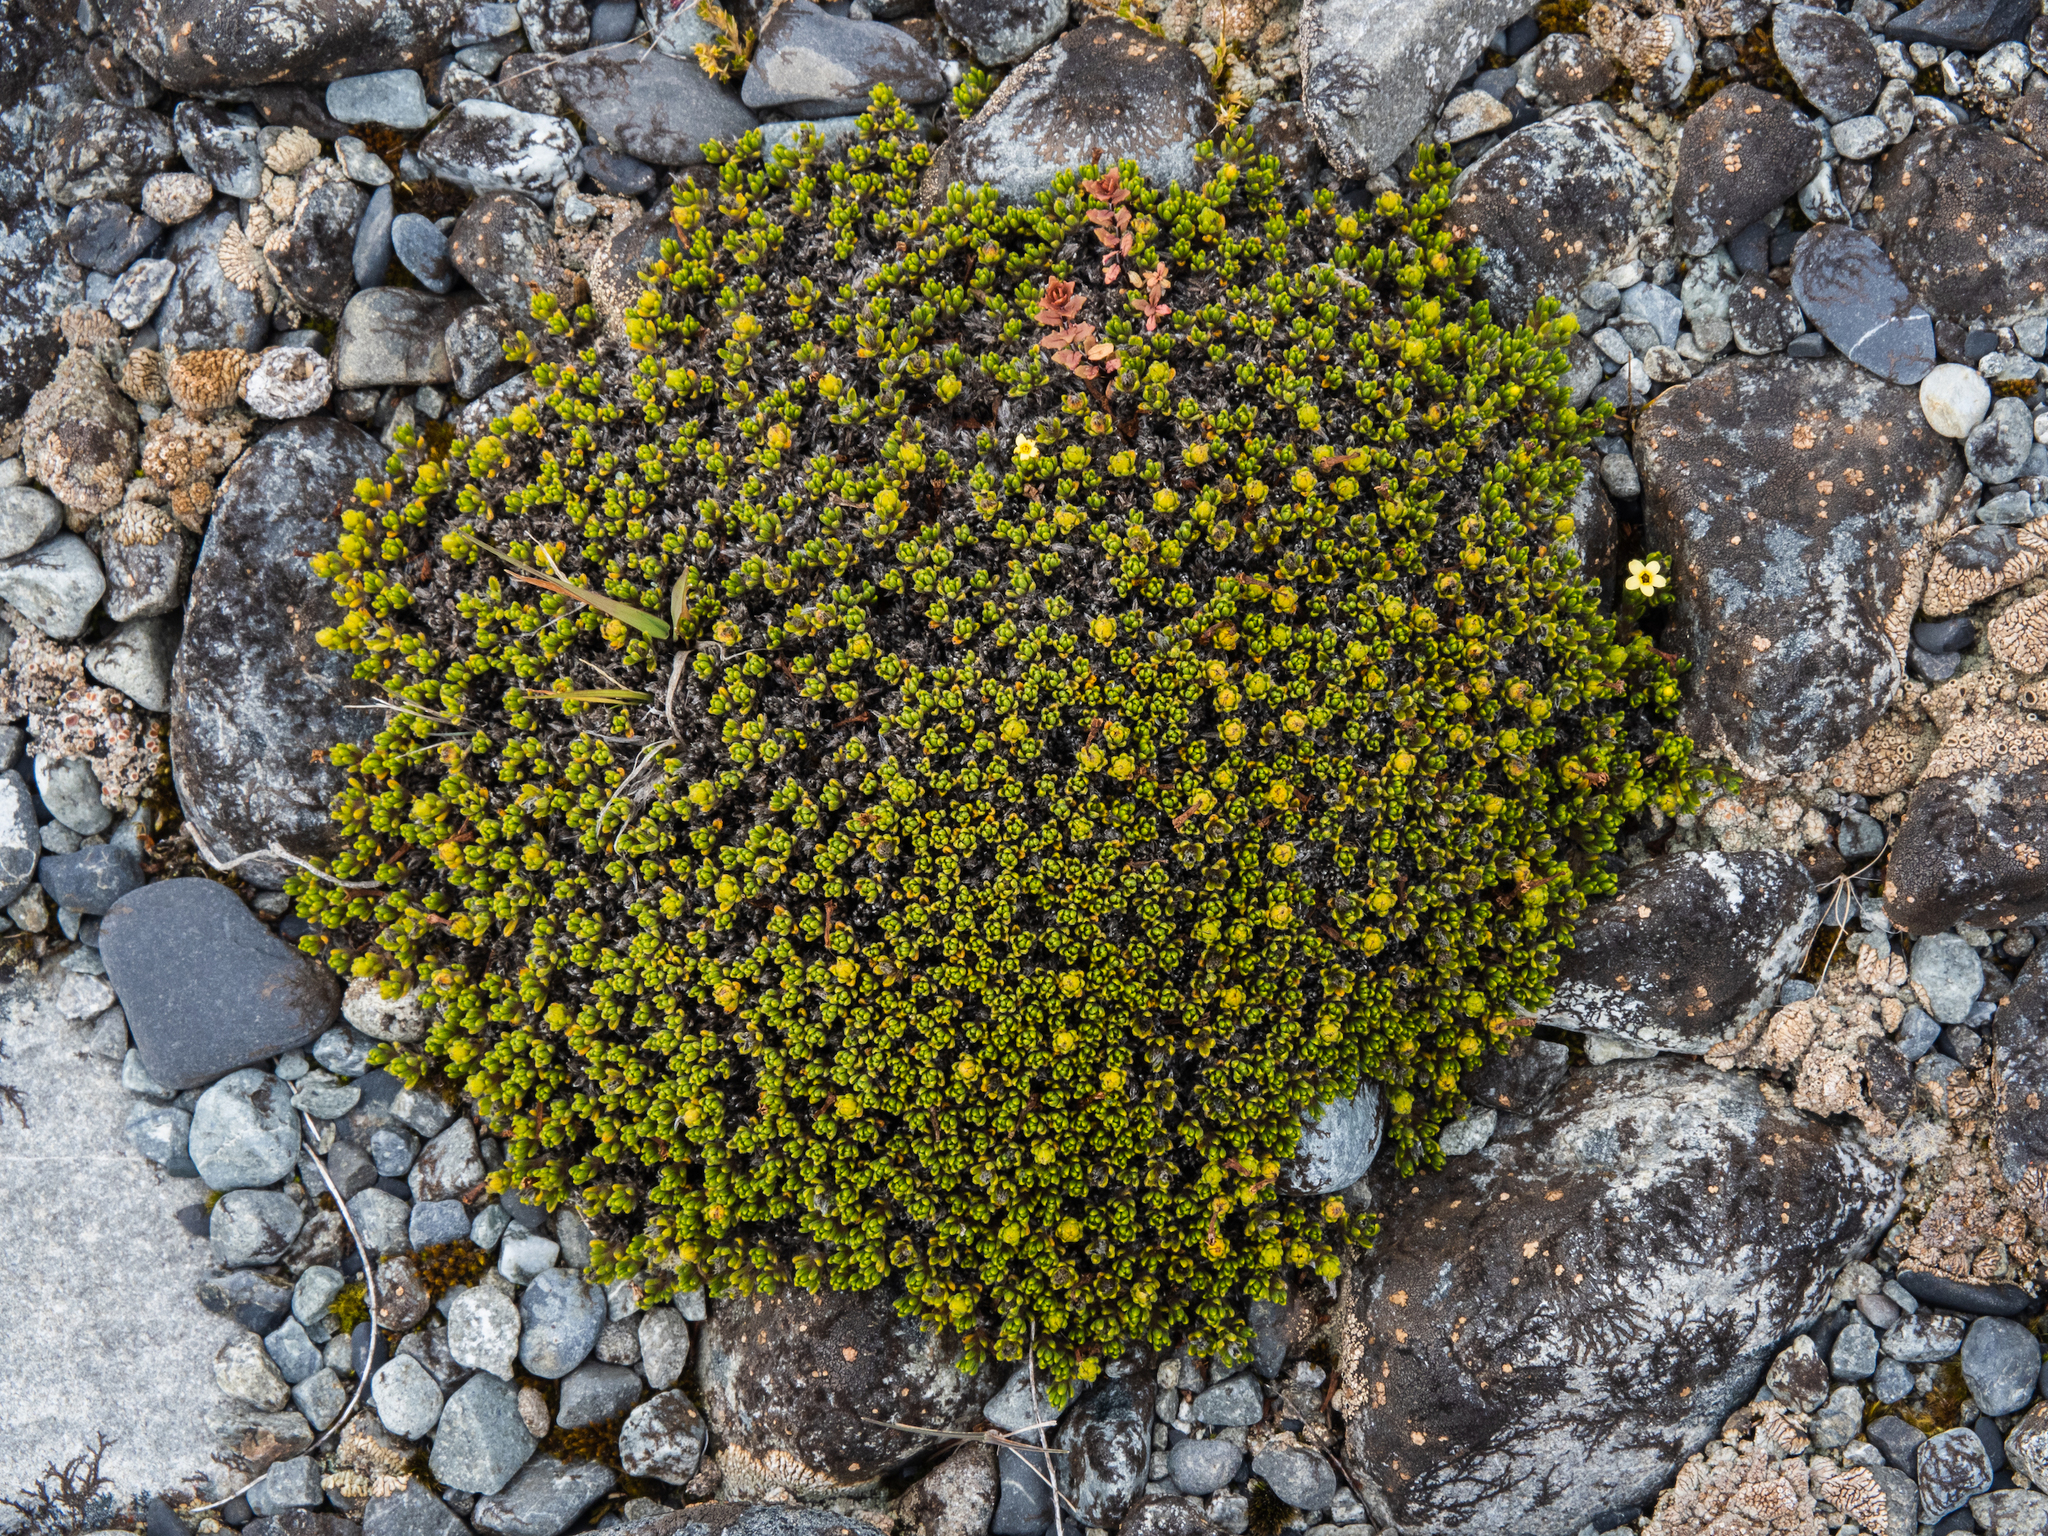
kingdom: Plantae
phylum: Tracheophyta
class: Magnoliopsida
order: Boraginales
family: Boraginaceae
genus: Myosotis
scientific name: Myosotis uniflora
